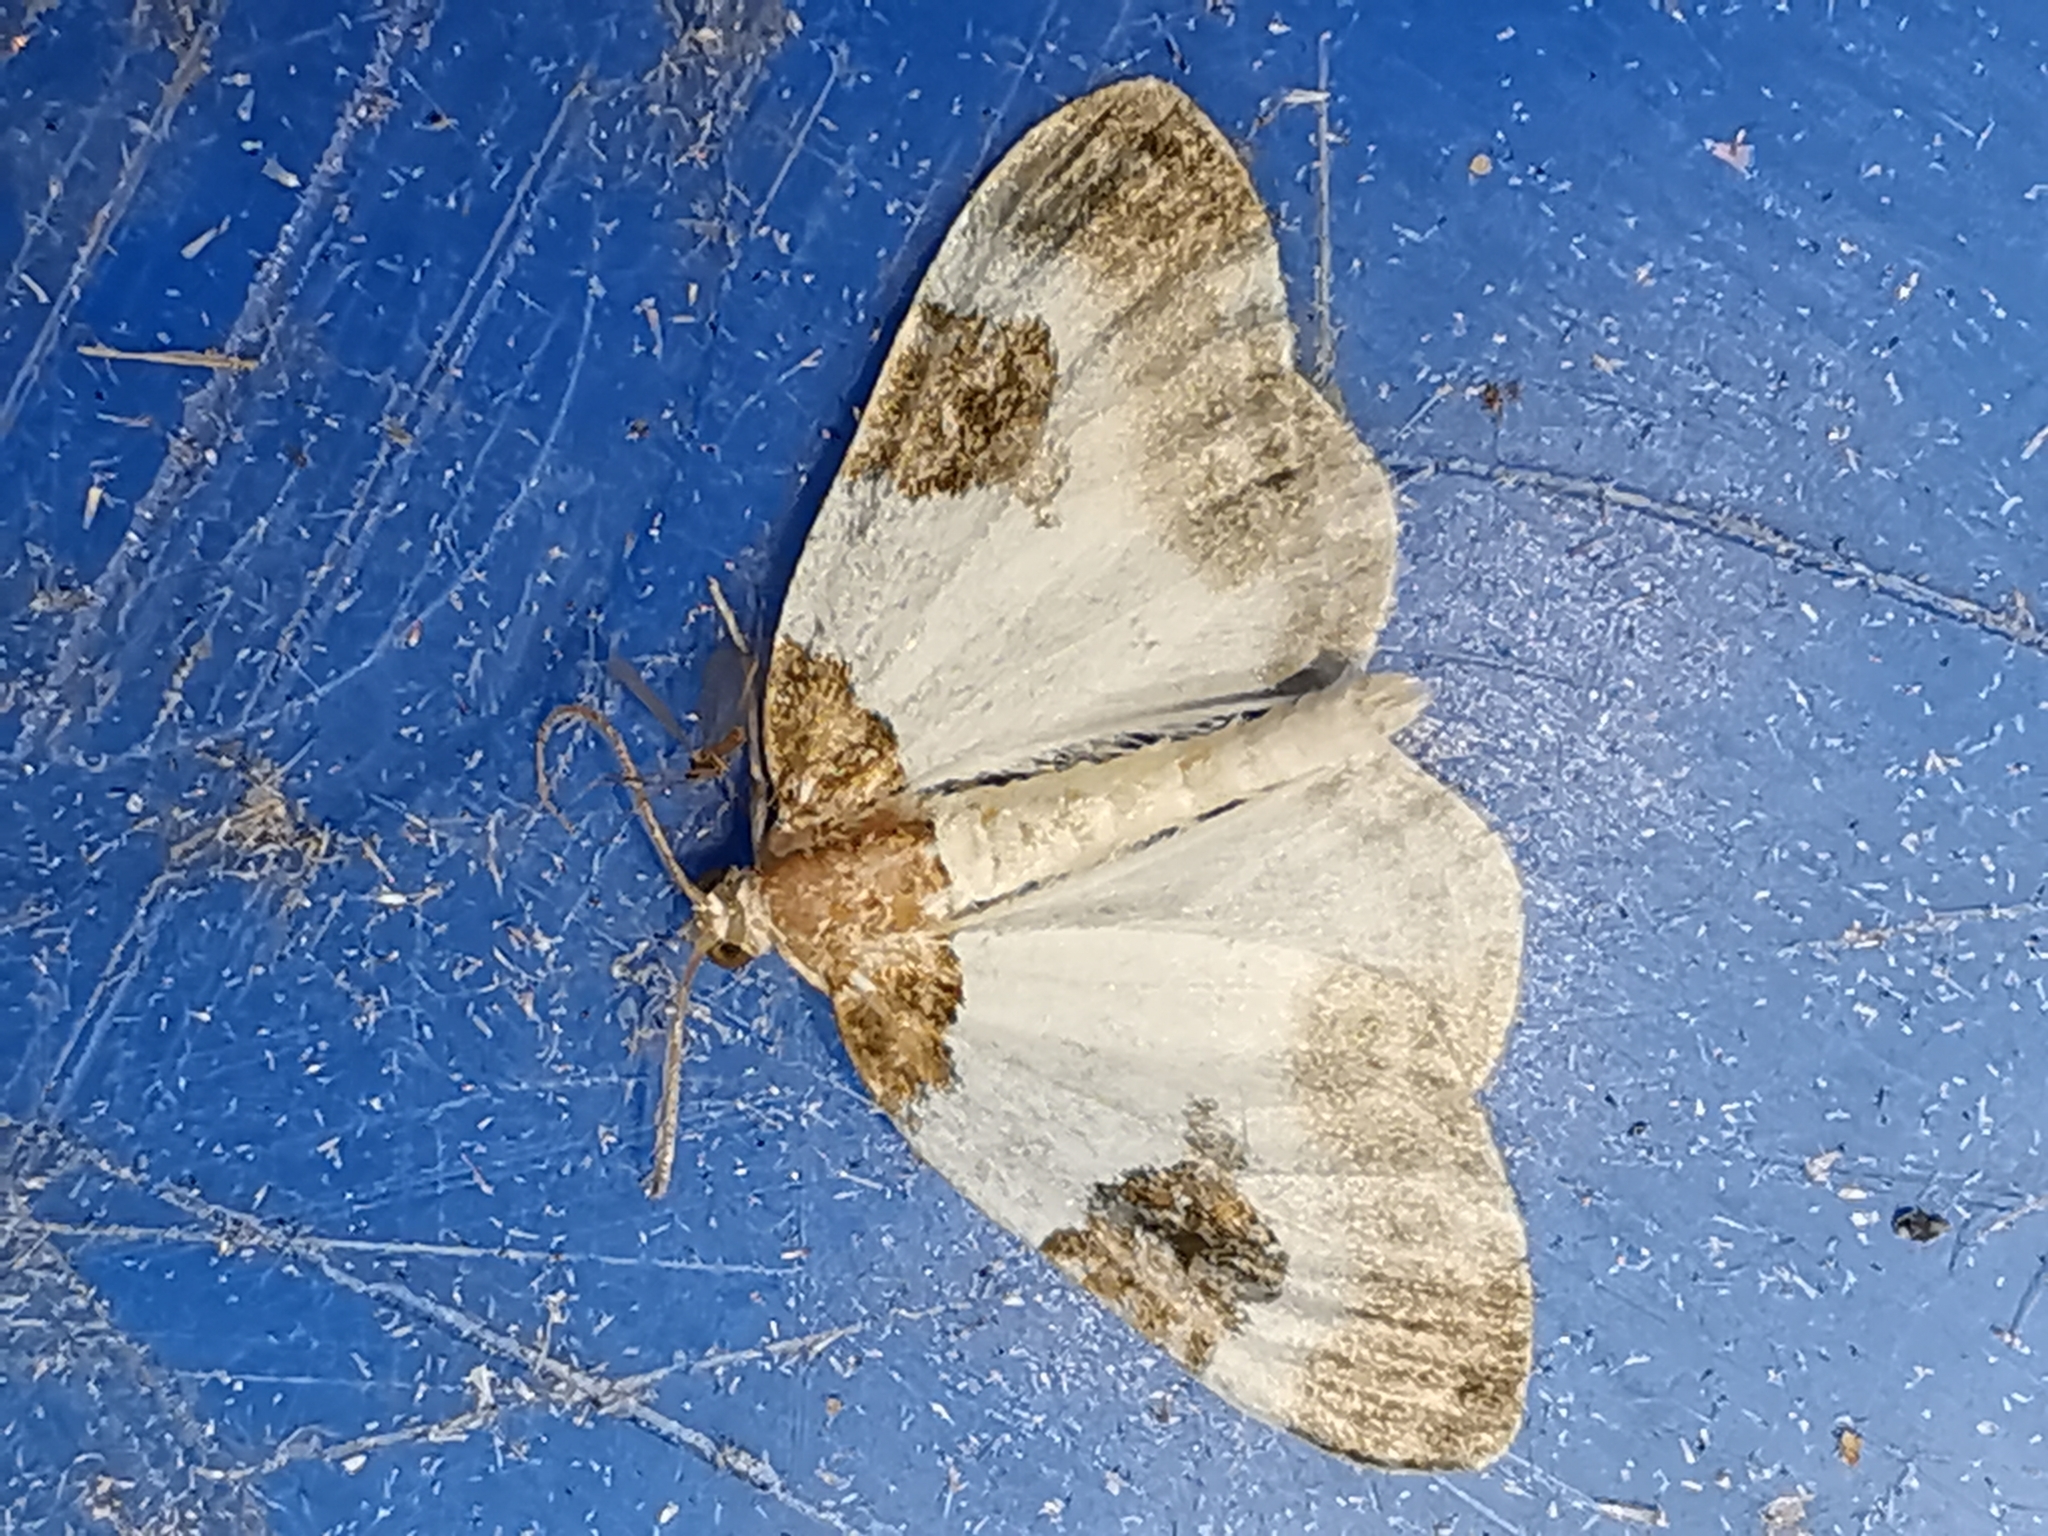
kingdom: Animalia
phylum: Arthropoda
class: Insecta
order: Lepidoptera
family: Geometridae
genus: Plemyria
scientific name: Plemyria rubiginata
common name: Blue-bordered carpet
